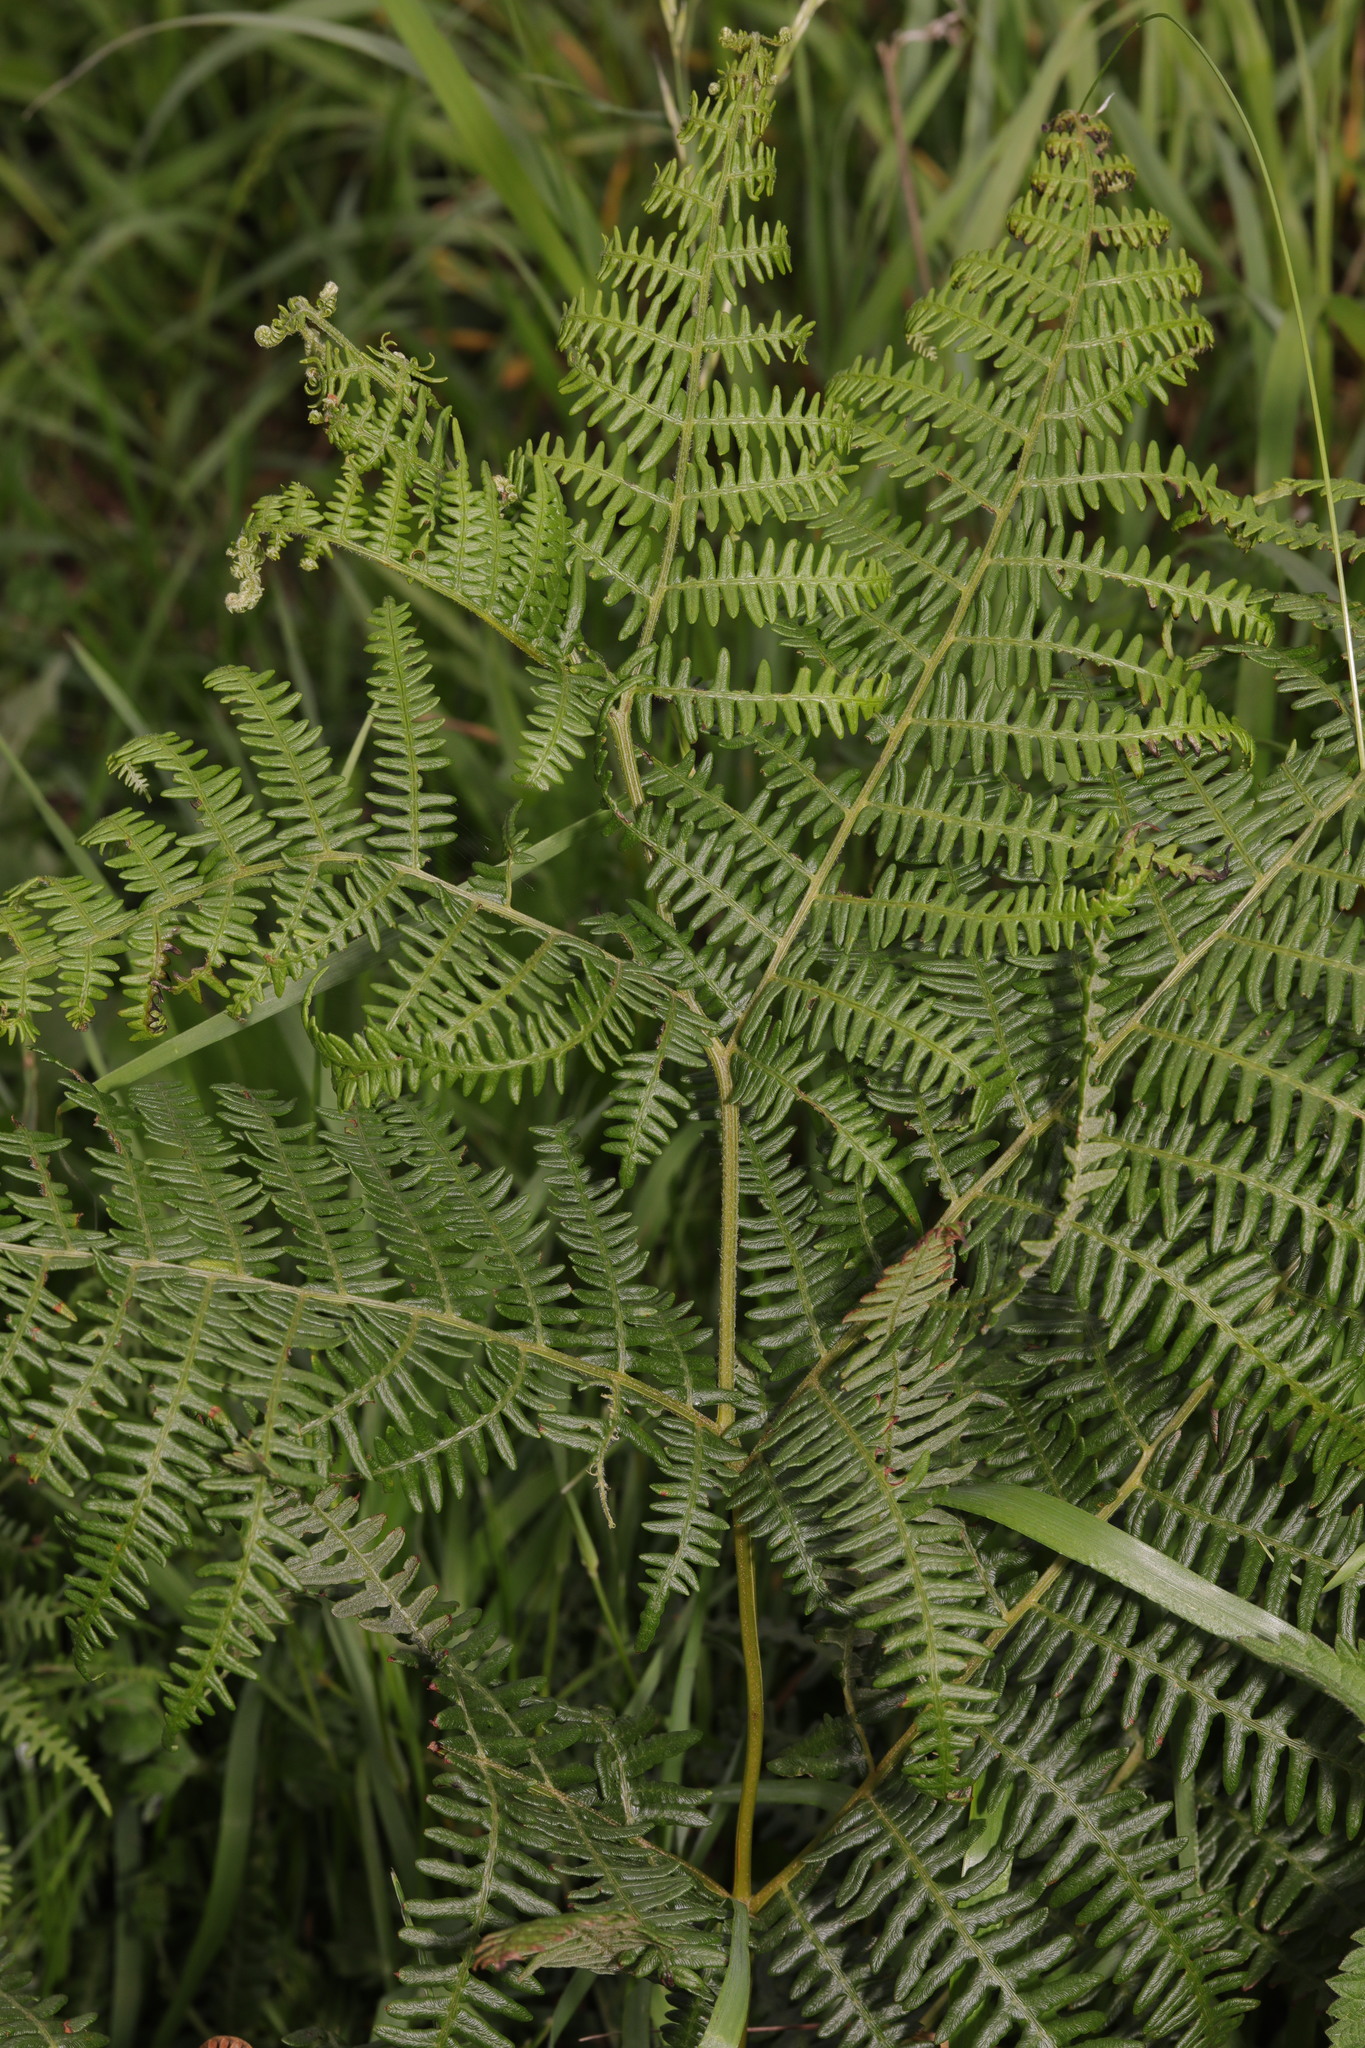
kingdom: Plantae
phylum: Tracheophyta
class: Polypodiopsida
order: Polypodiales
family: Dennstaedtiaceae
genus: Pteridium
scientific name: Pteridium aquilinum
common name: Bracken
